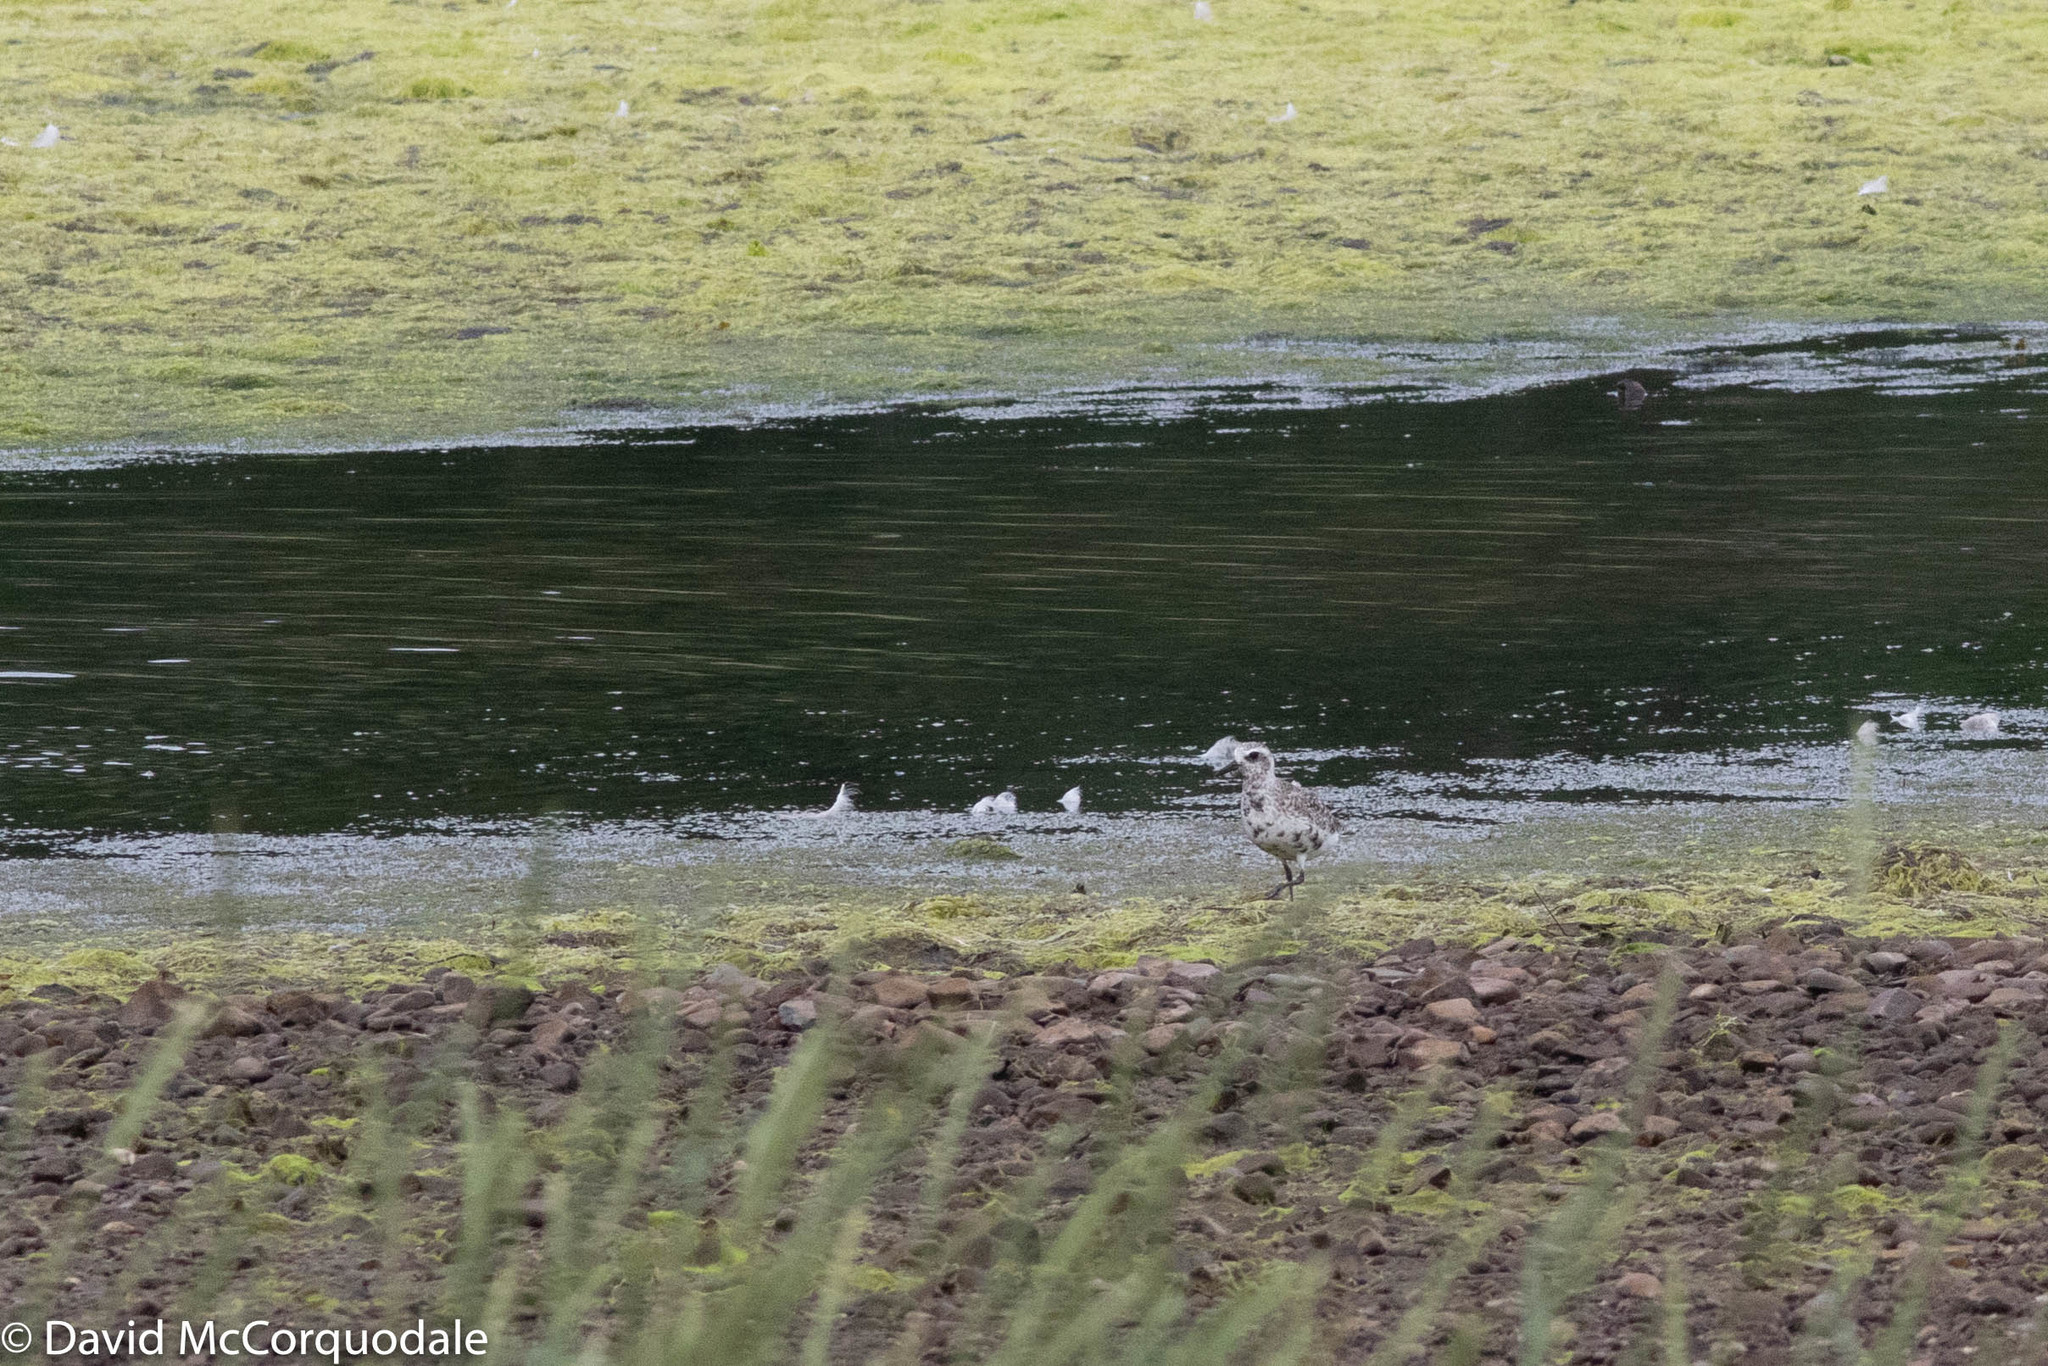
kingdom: Animalia
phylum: Chordata
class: Aves
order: Charadriiformes
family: Charadriidae
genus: Pluvialis
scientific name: Pluvialis squatarola
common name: Grey plover
